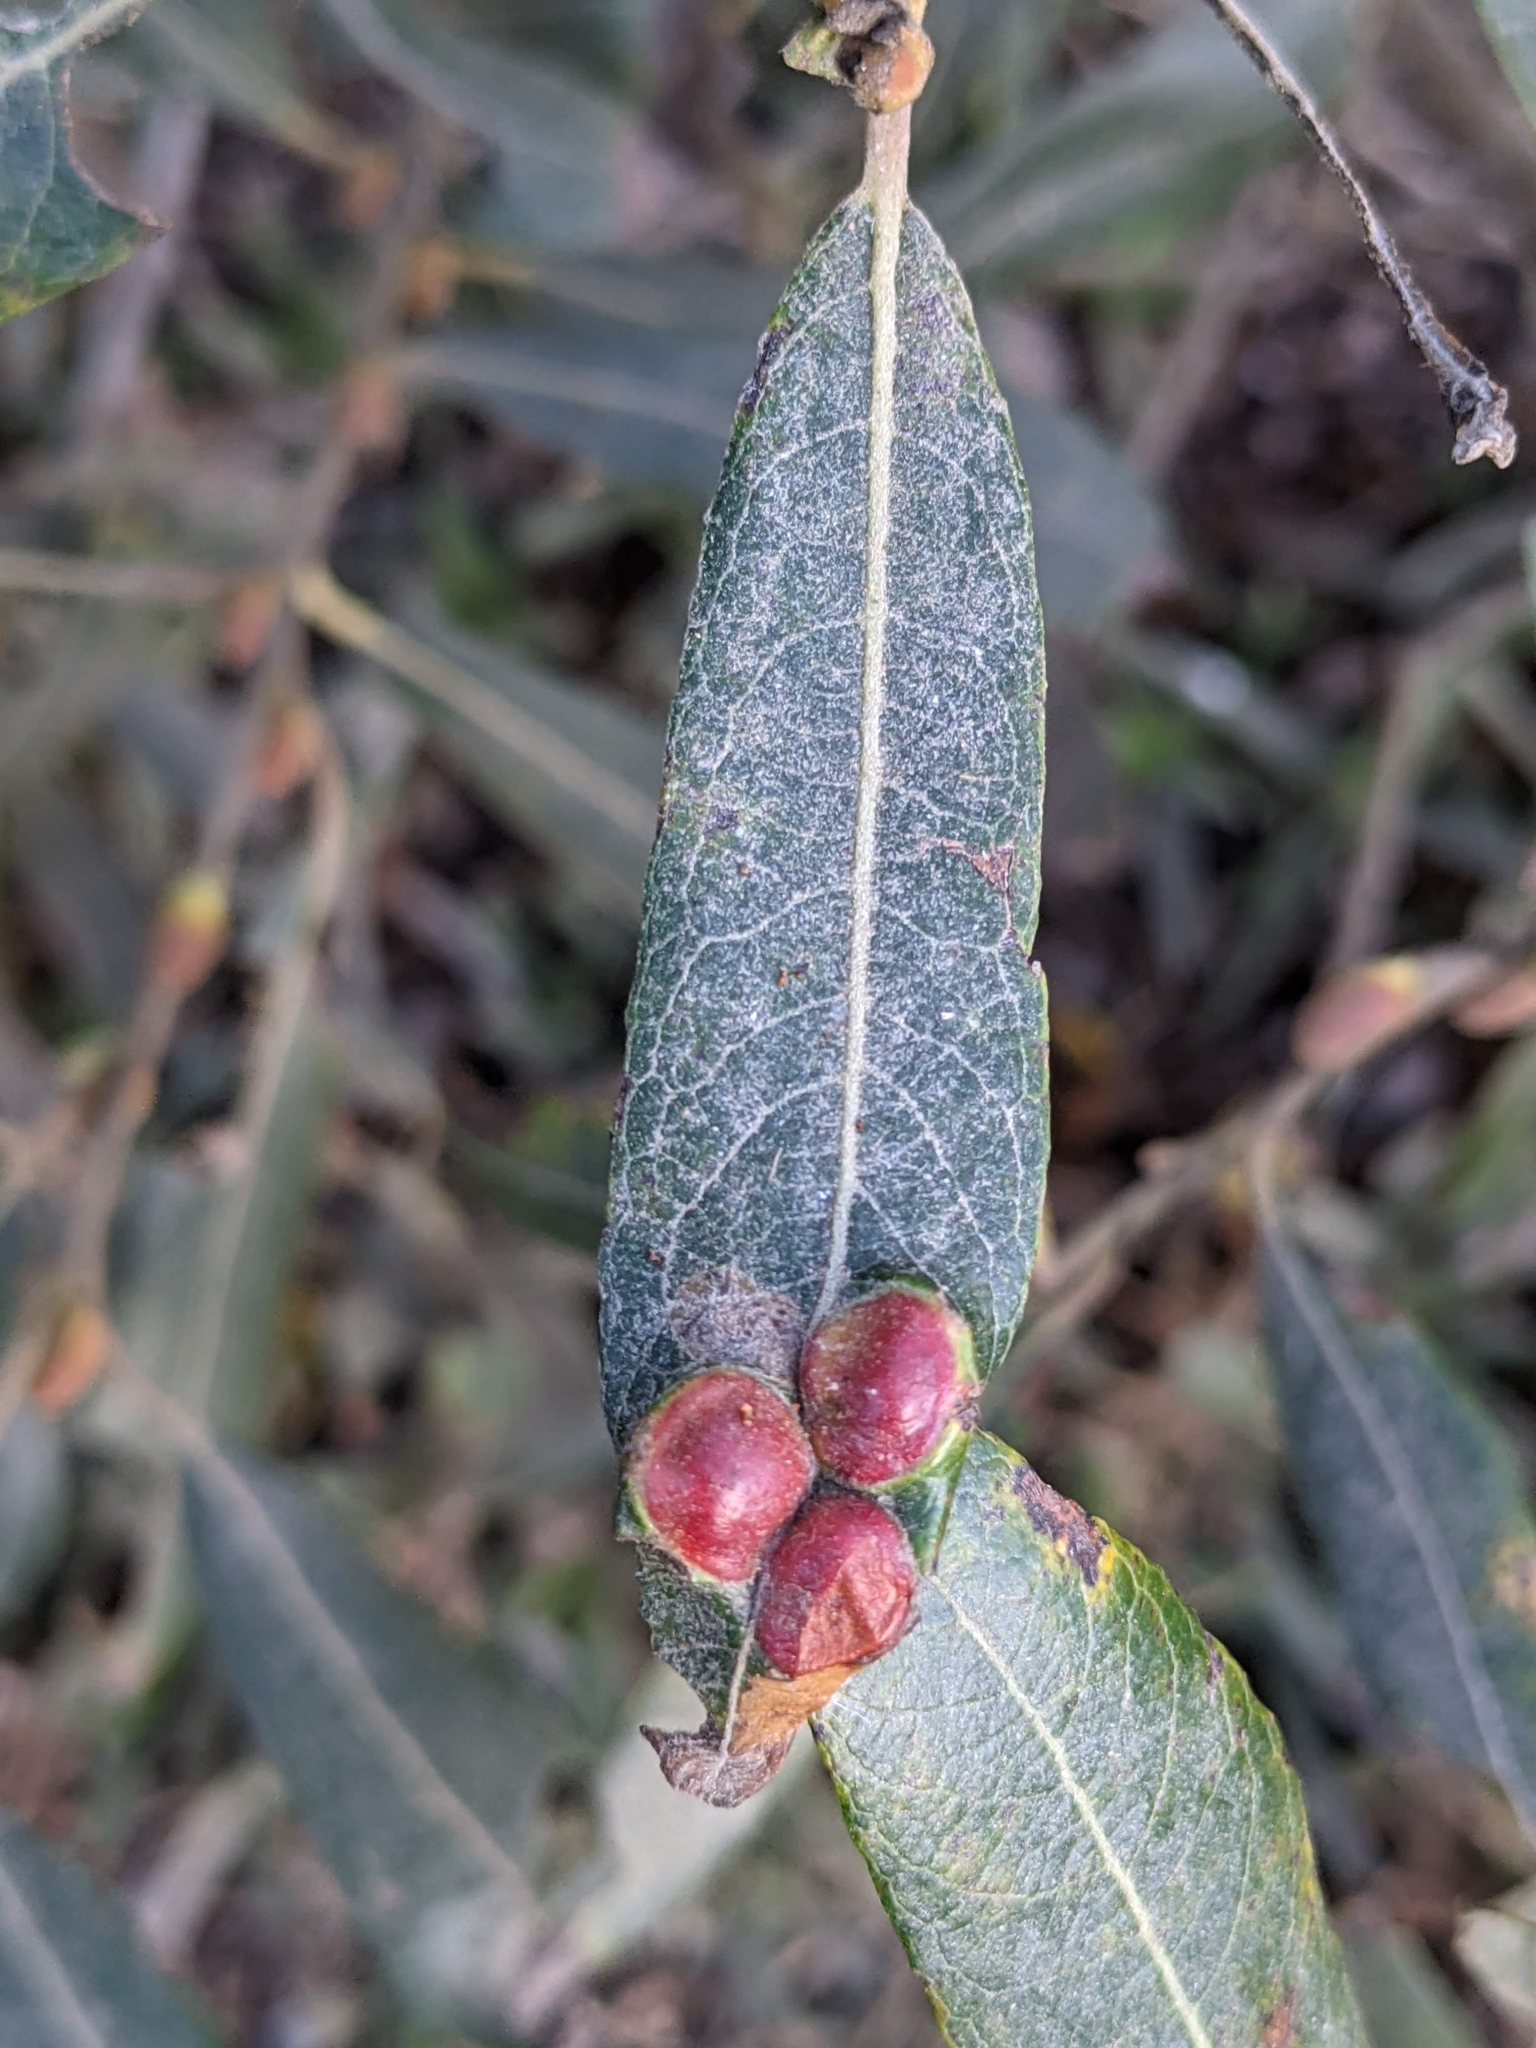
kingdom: Animalia
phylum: Arthropoda
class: Insecta
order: Hymenoptera
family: Tenthredinidae
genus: Euura
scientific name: Euura
